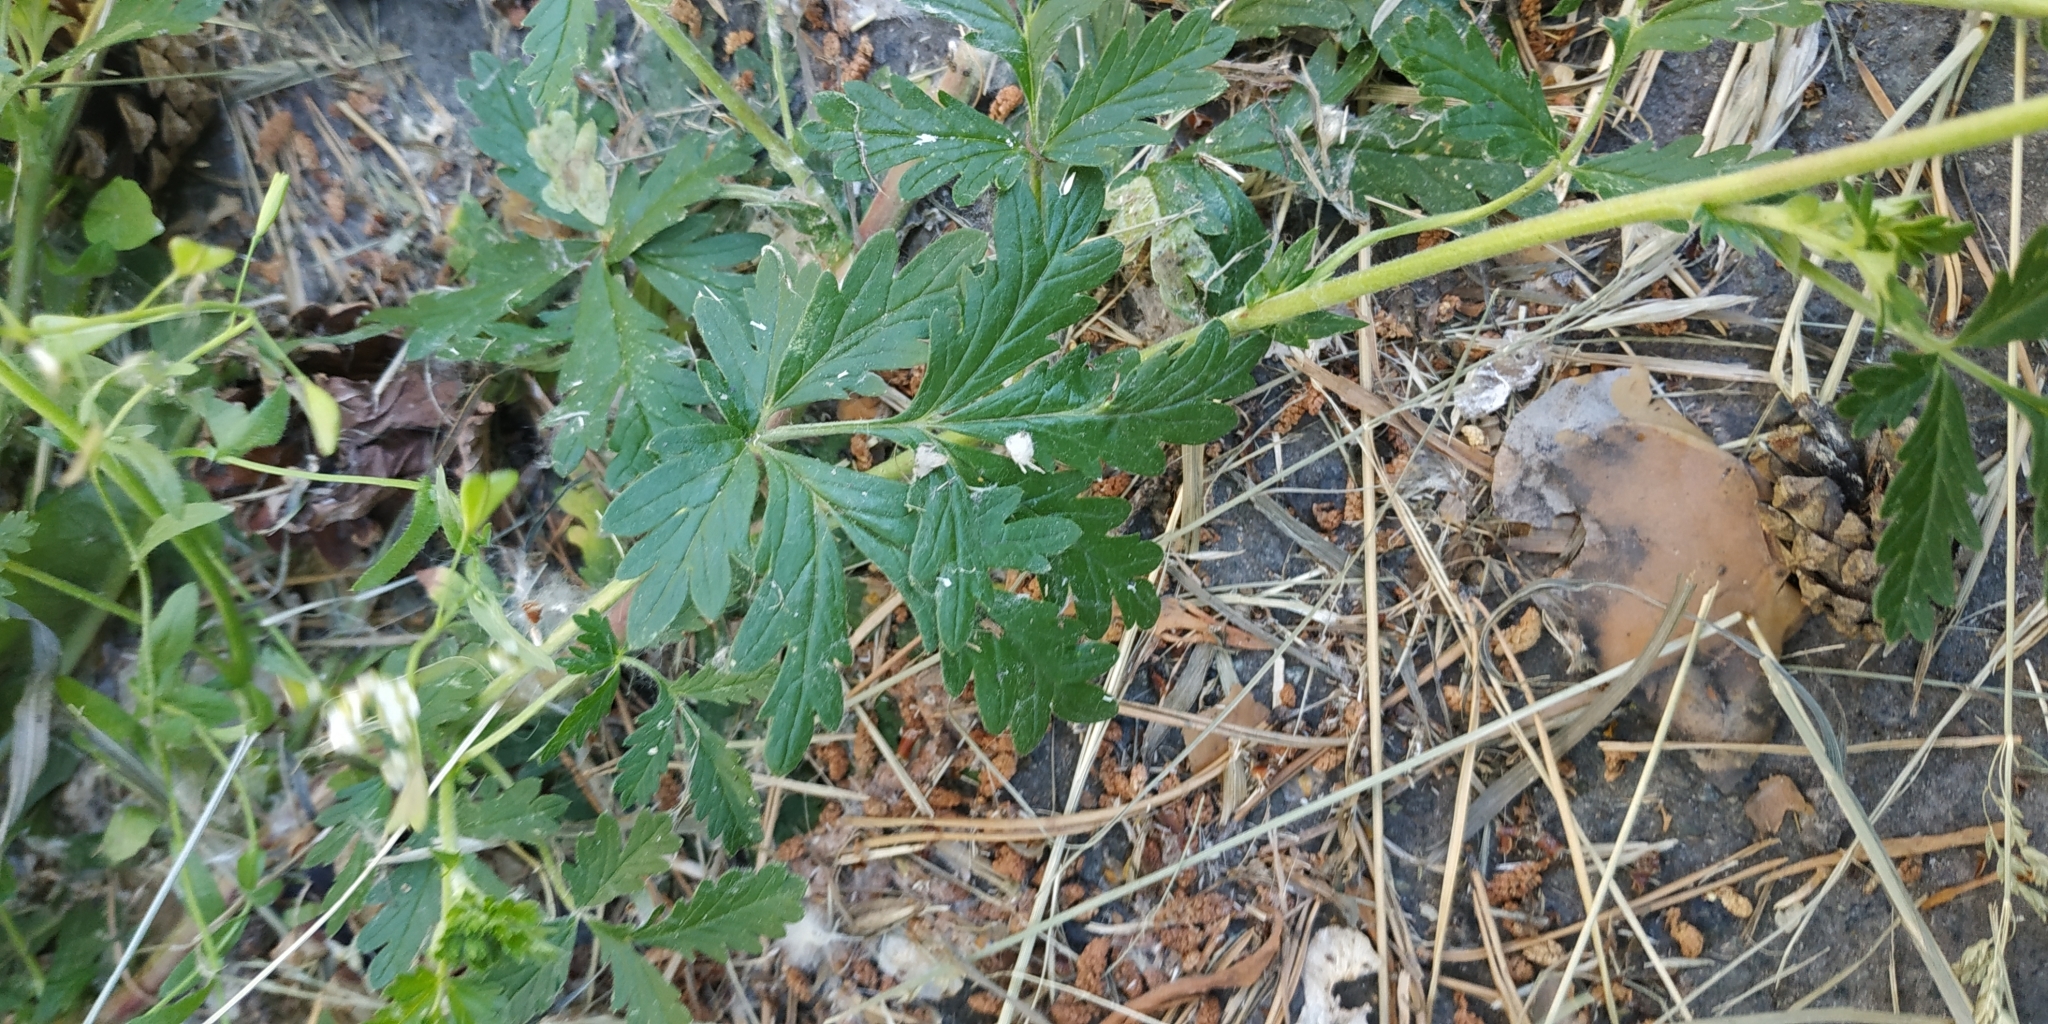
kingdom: Plantae
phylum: Tracheophyta
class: Magnoliopsida
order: Rosales
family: Rosaceae
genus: Potentilla
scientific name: Potentilla tobolensis
